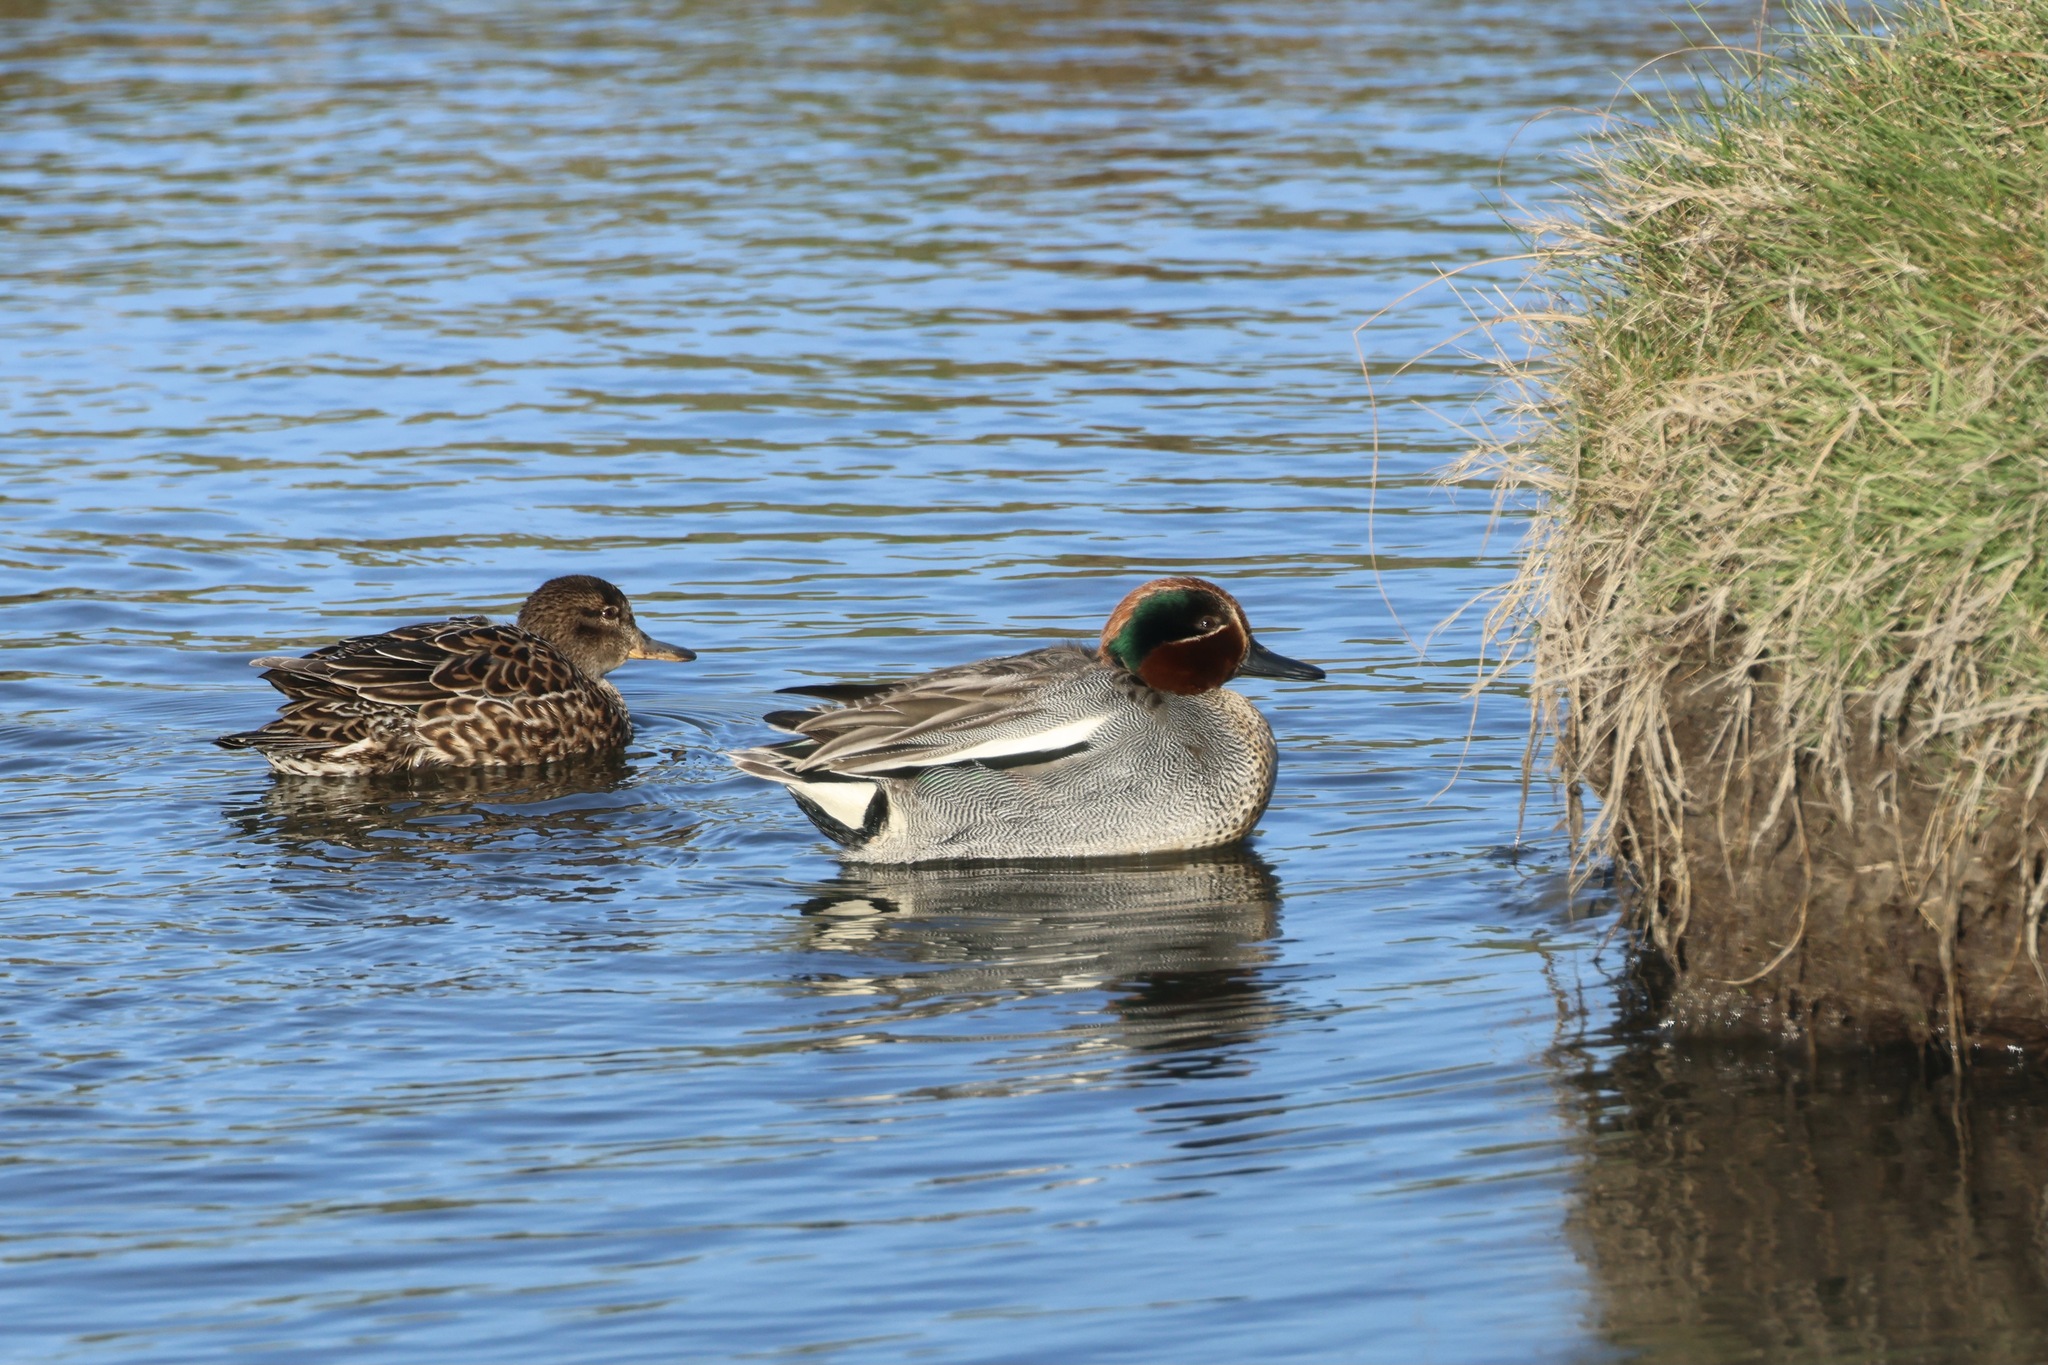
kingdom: Animalia
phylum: Chordata
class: Aves
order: Anseriformes
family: Anatidae
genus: Anas
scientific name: Anas crecca
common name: Eurasian teal
